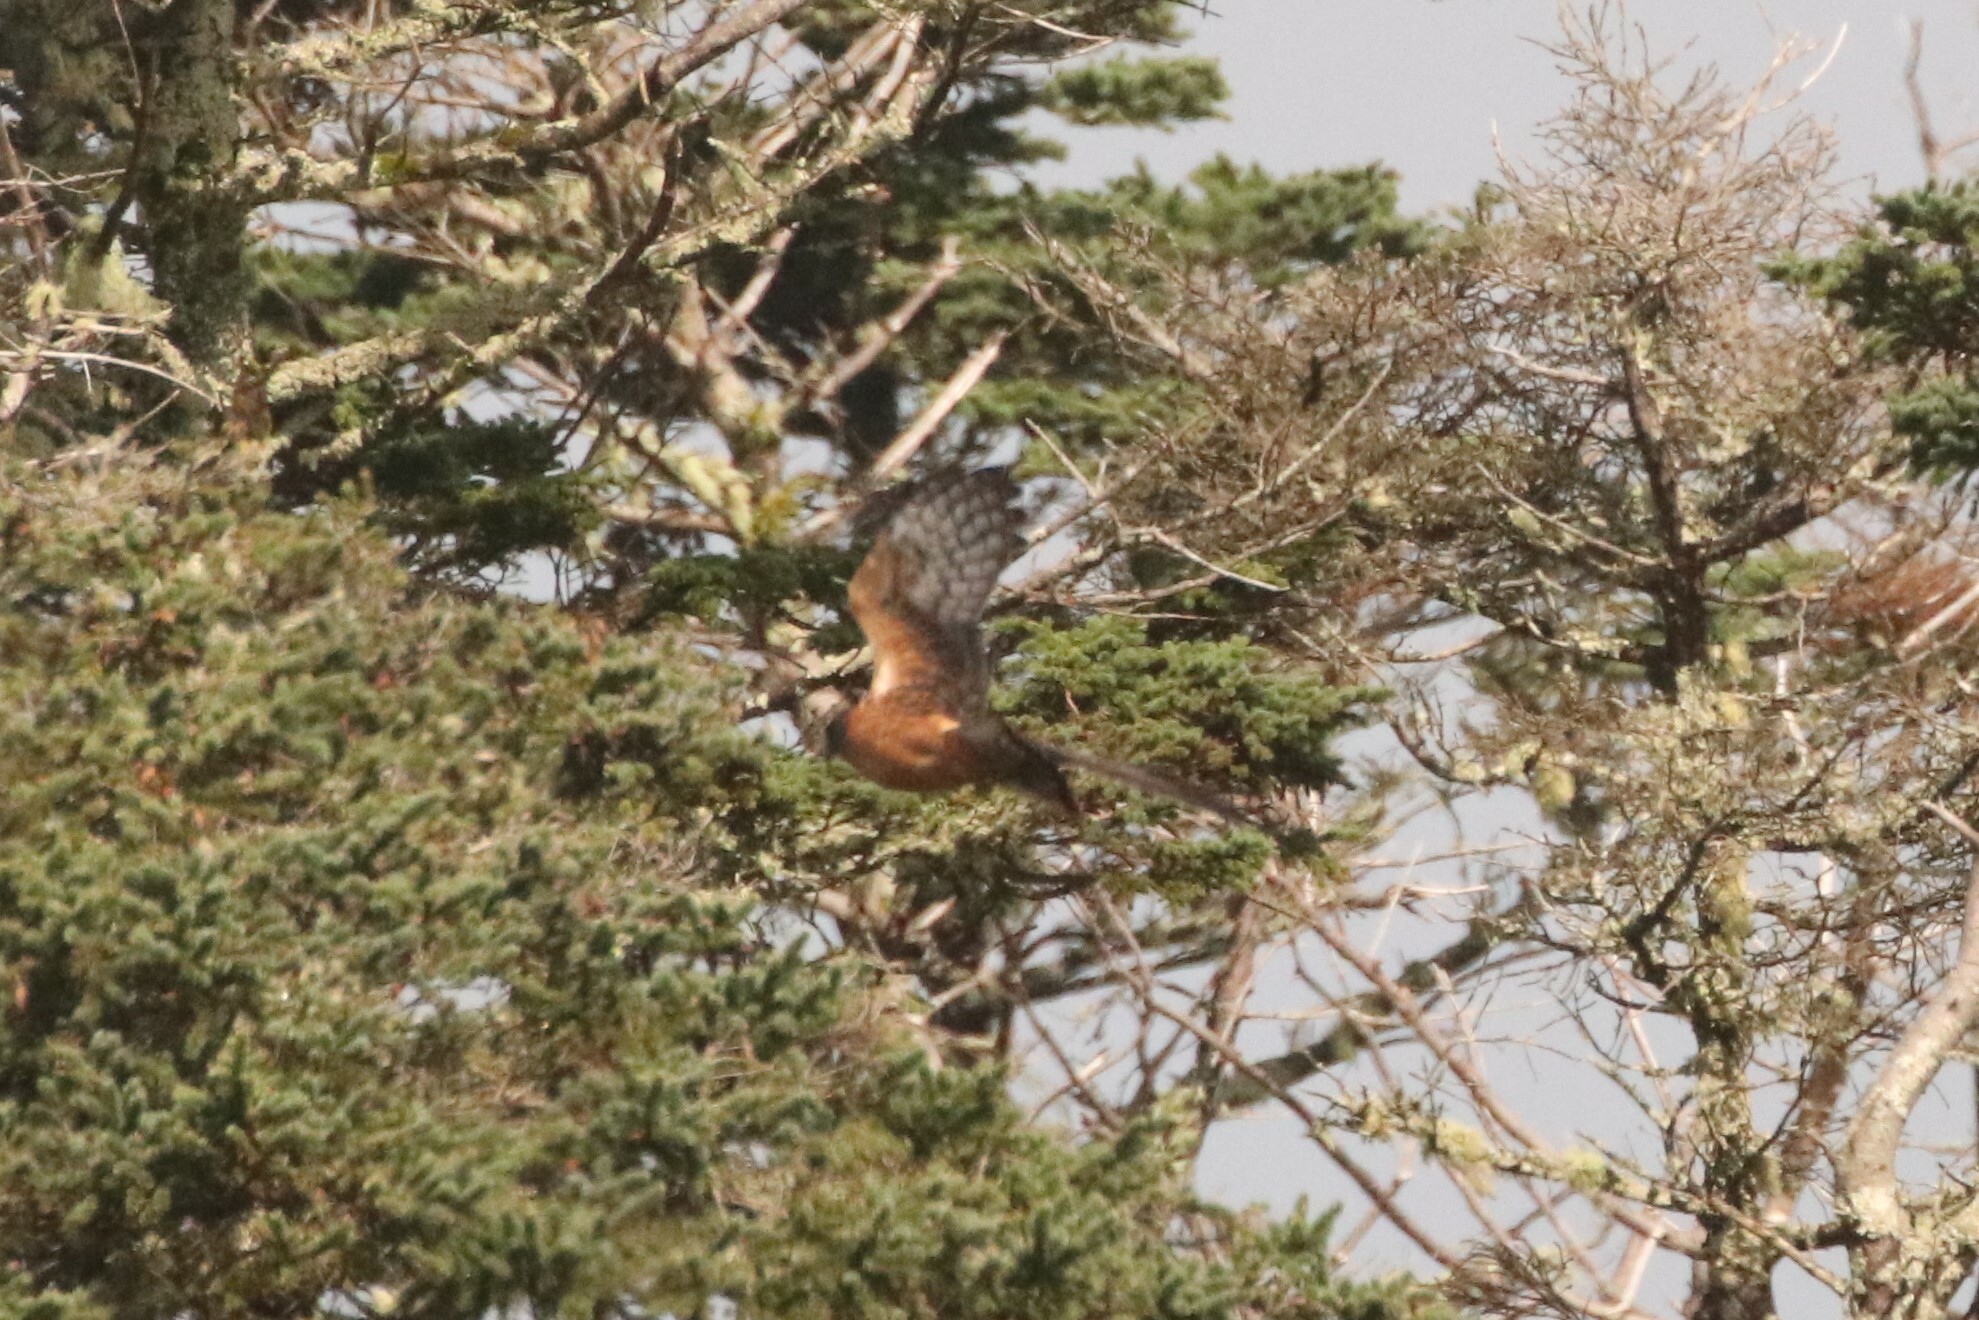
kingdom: Animalia
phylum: Chordata
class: Aves
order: Accipitriformes
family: Accipitridae
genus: Circus
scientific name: Circus cyaneus
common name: Hen harrier
